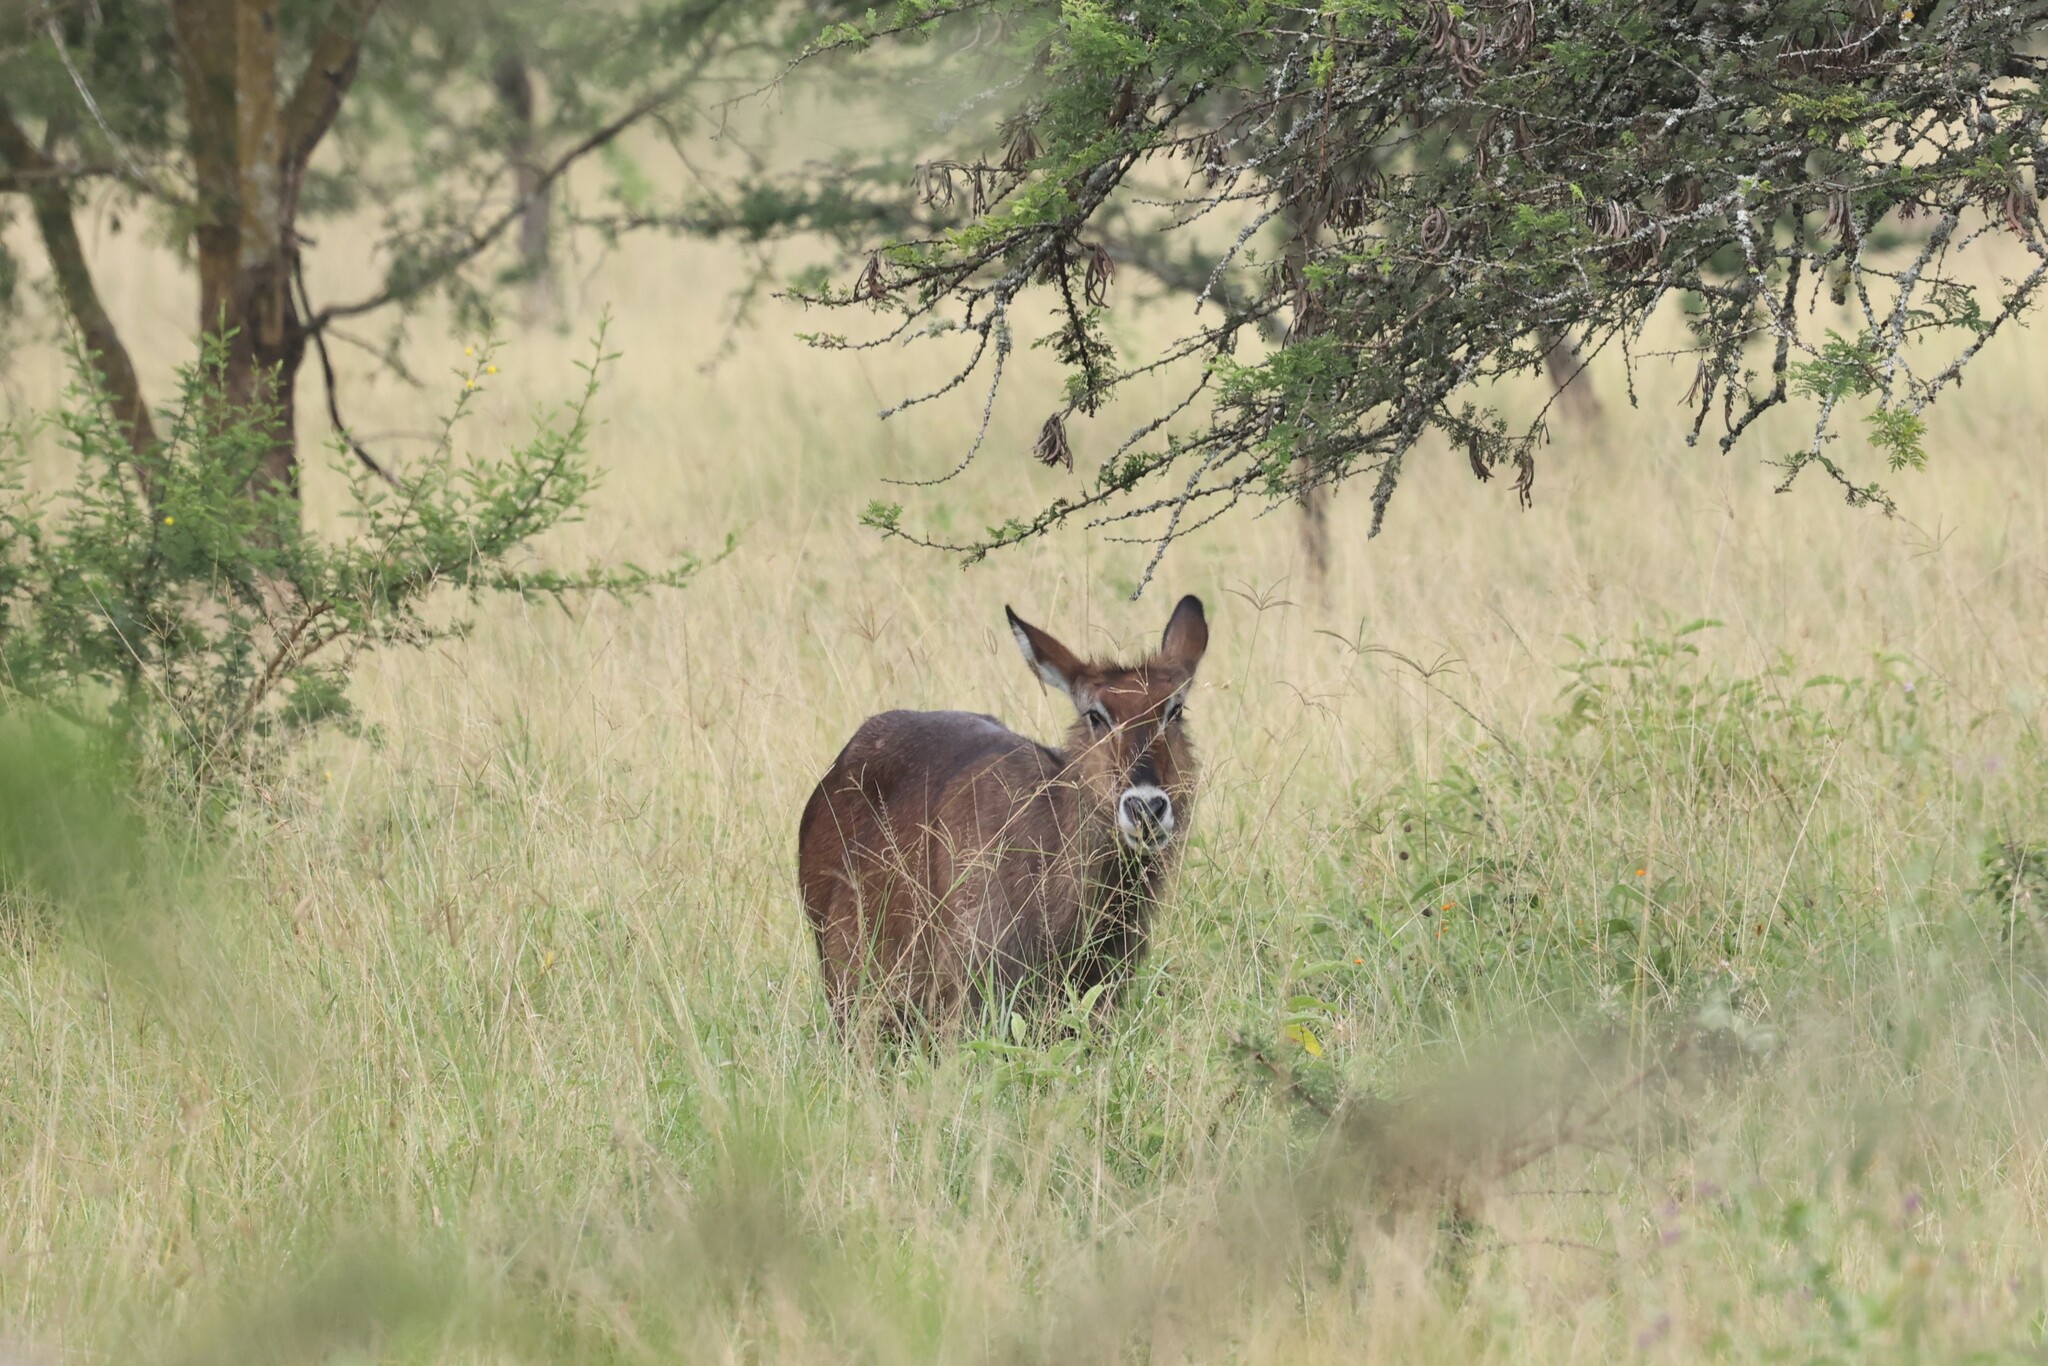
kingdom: Animalia
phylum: Chordata
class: Mammalia
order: Artiodactyla
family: Bovidae
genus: Kobus
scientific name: Kobus ellipsiprymnus
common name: Waterbuck
